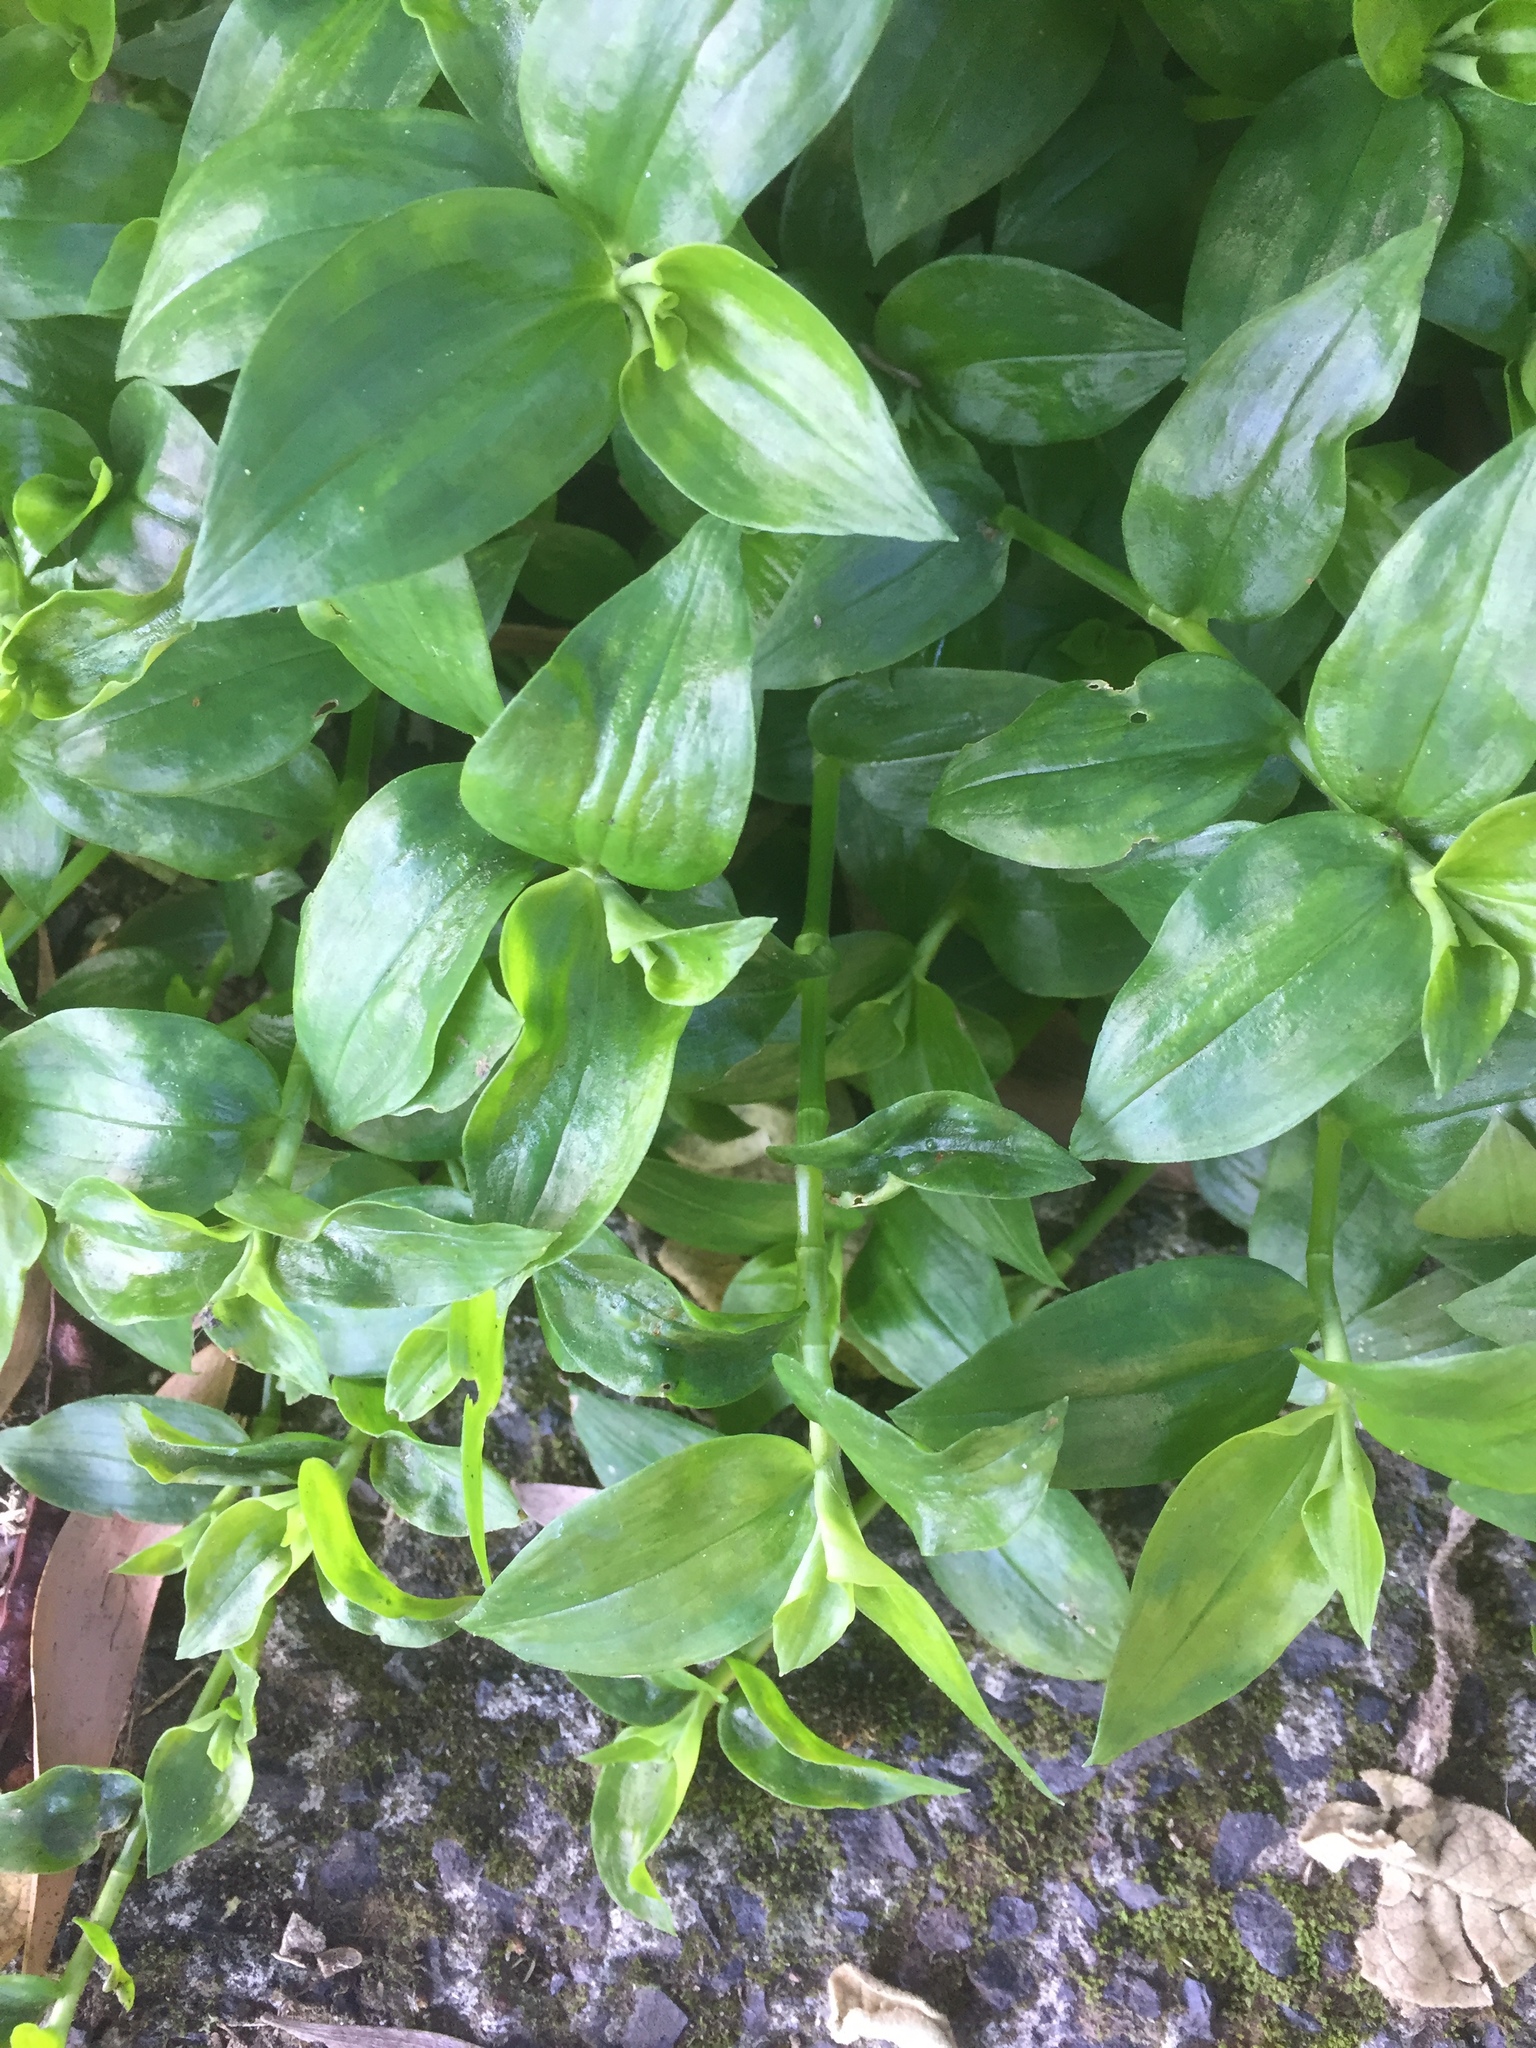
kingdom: Plantae
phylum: Tracheophyta
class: Liliopsida
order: Commelinales
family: Commelinaceae
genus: Tradescantia
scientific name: Tradescantia fluminensis
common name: Wandering-jew
